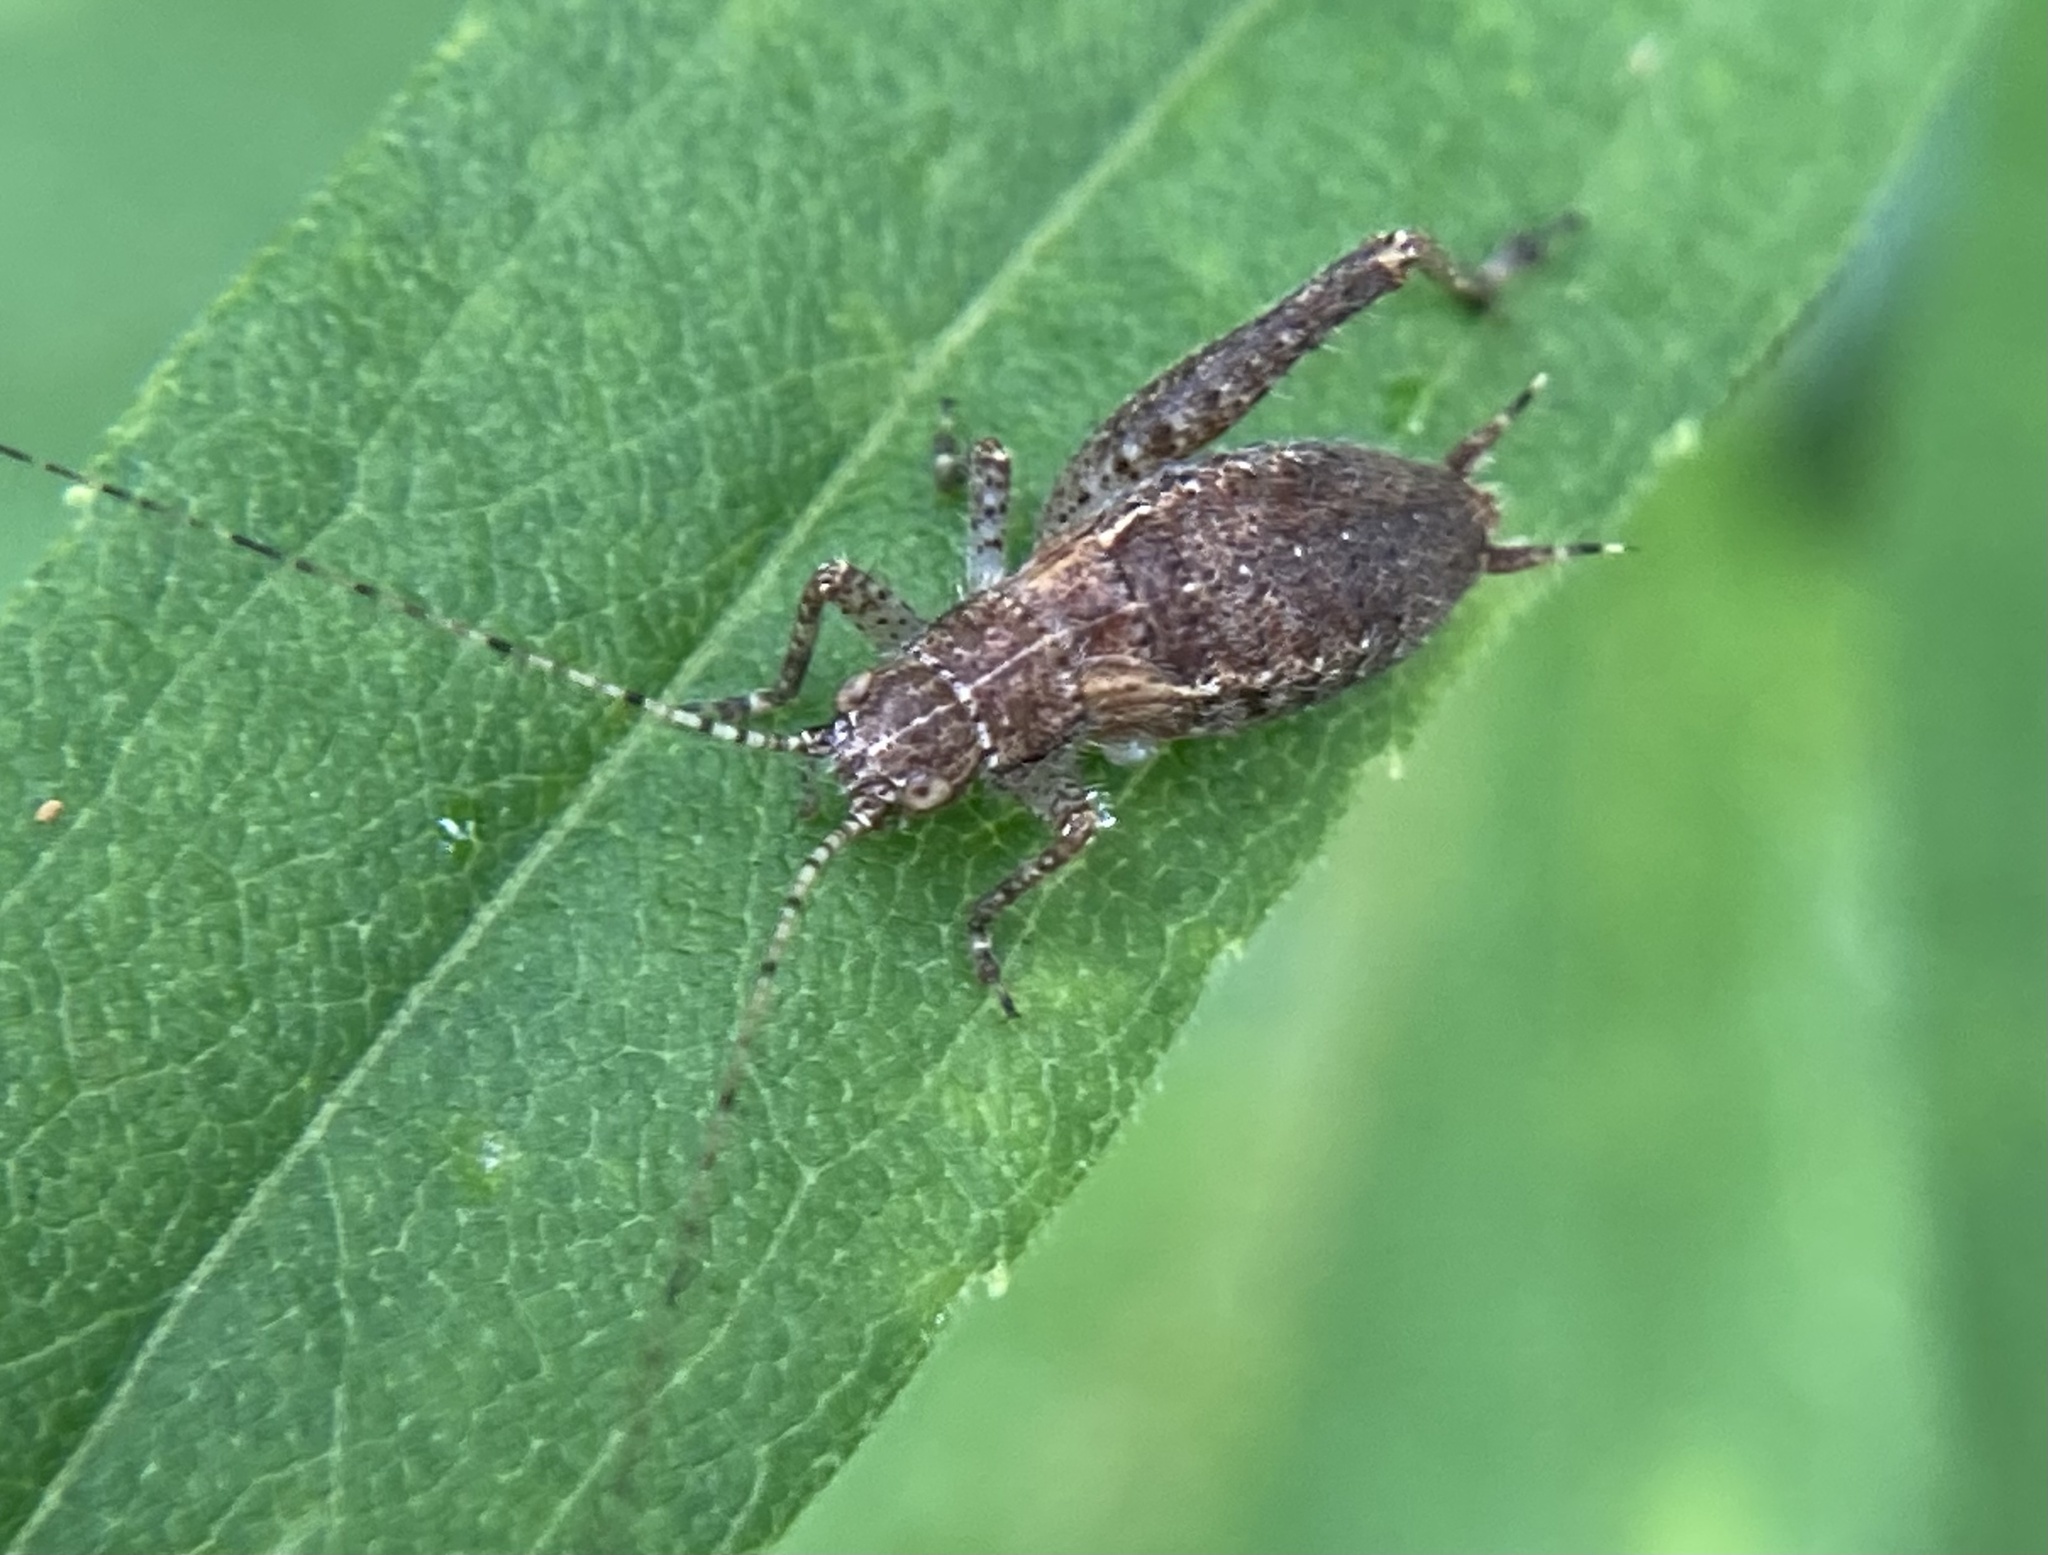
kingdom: Animalia
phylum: Arthropoda
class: Insecta
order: Orthoptera
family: Gryllidae
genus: Hapithus
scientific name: Hapithus agitator
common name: Restless bush cricket
